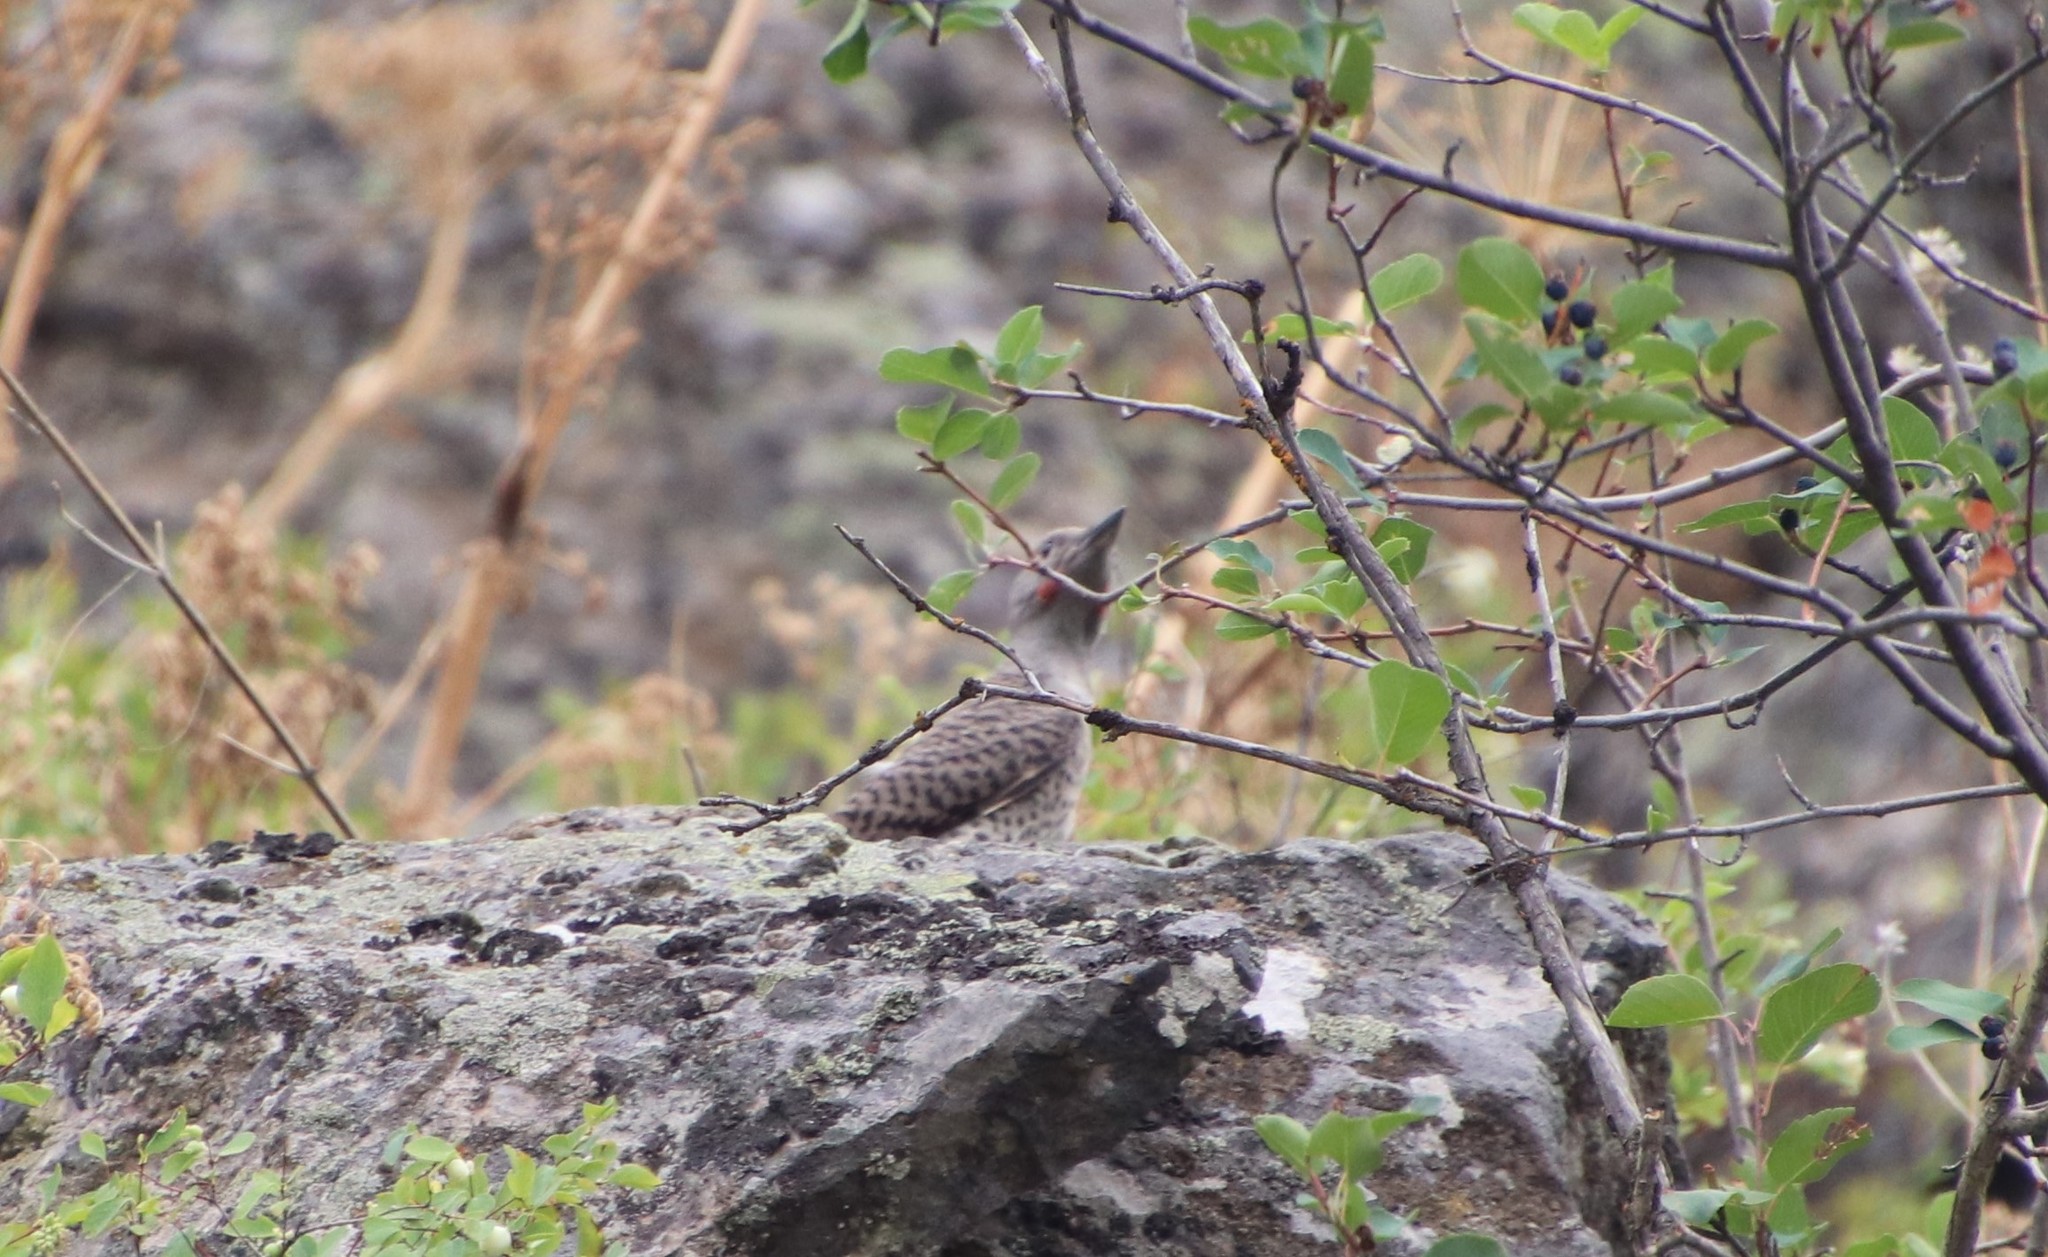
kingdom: Animalia
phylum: Chordata
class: Aves
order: Piciformes
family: Picidae
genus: Colaptes
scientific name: Colaptes auratus
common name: Northern flicker
